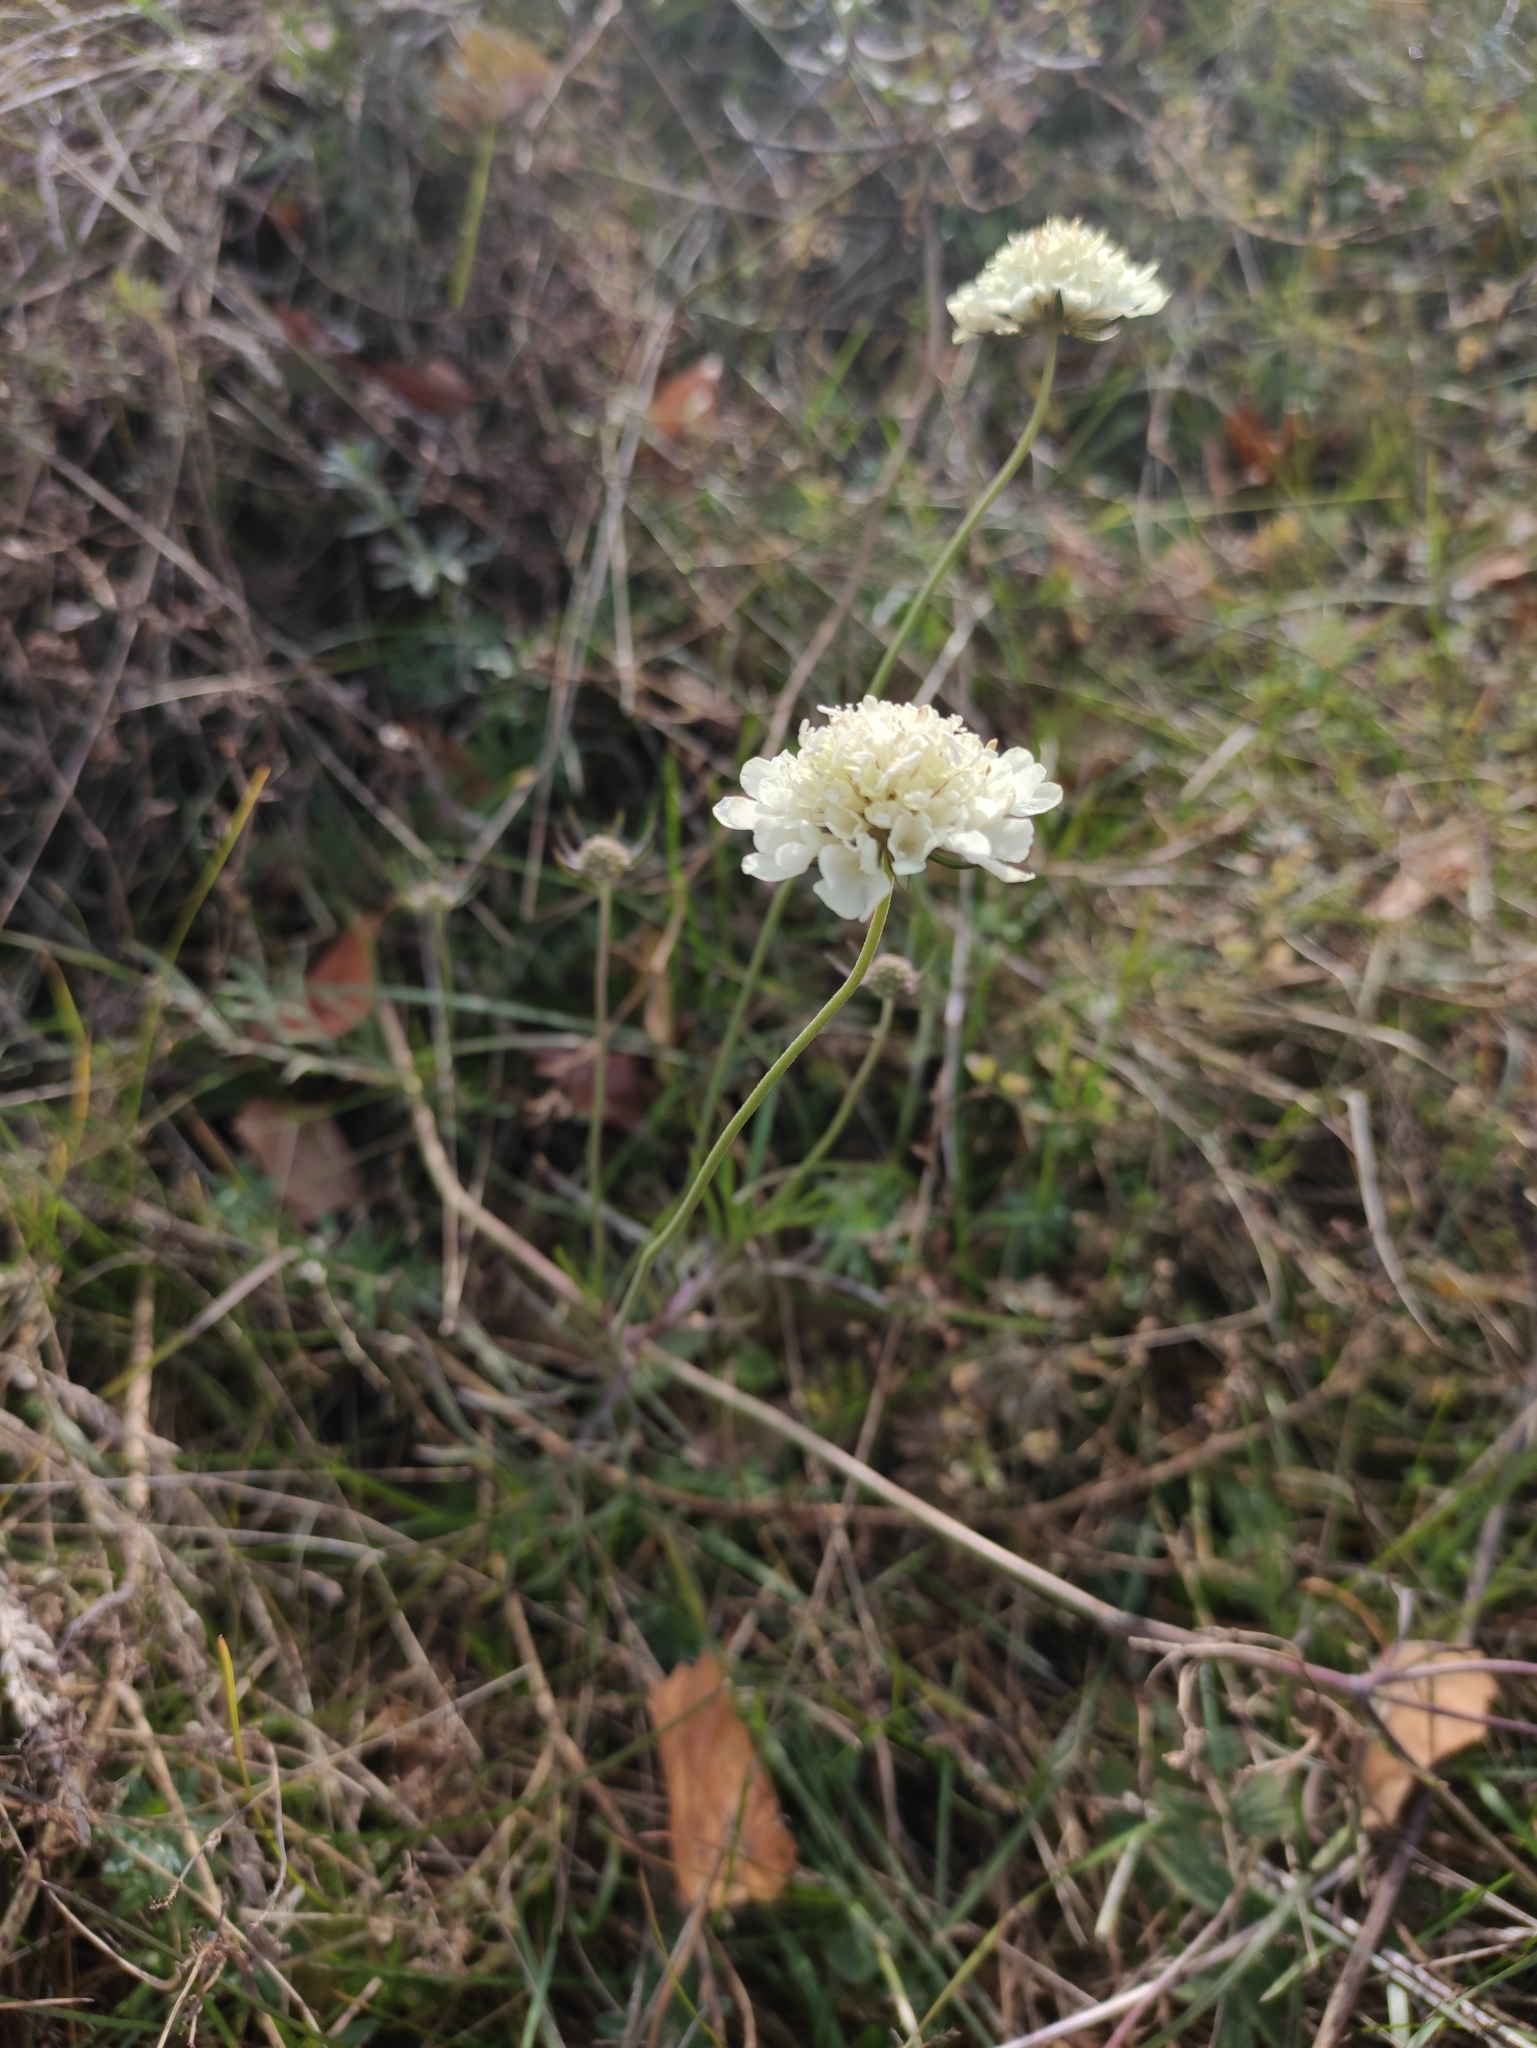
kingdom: Plantae
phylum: Tracheophyta
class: Magnoliopsida
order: Dipsacales
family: Caprifoliaceae
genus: Scabiosa
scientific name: Scabiosa ochroleuca
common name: Cream pincushions
